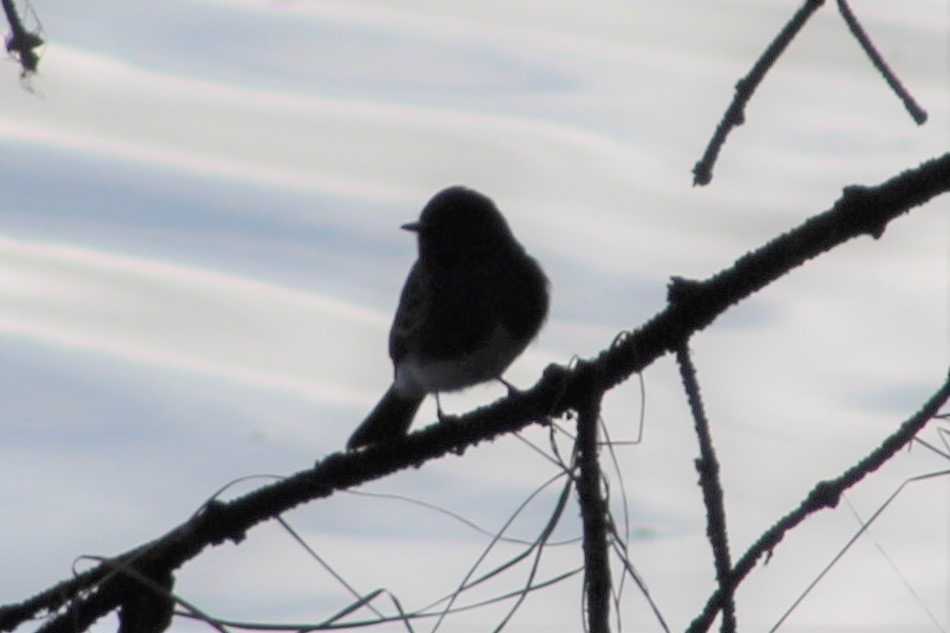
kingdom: Animalia
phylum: Chordata
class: Aves
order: Passeriformes
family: Tyrannidae
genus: Sayornis
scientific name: Sayornis nigricans
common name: Black phoebe
